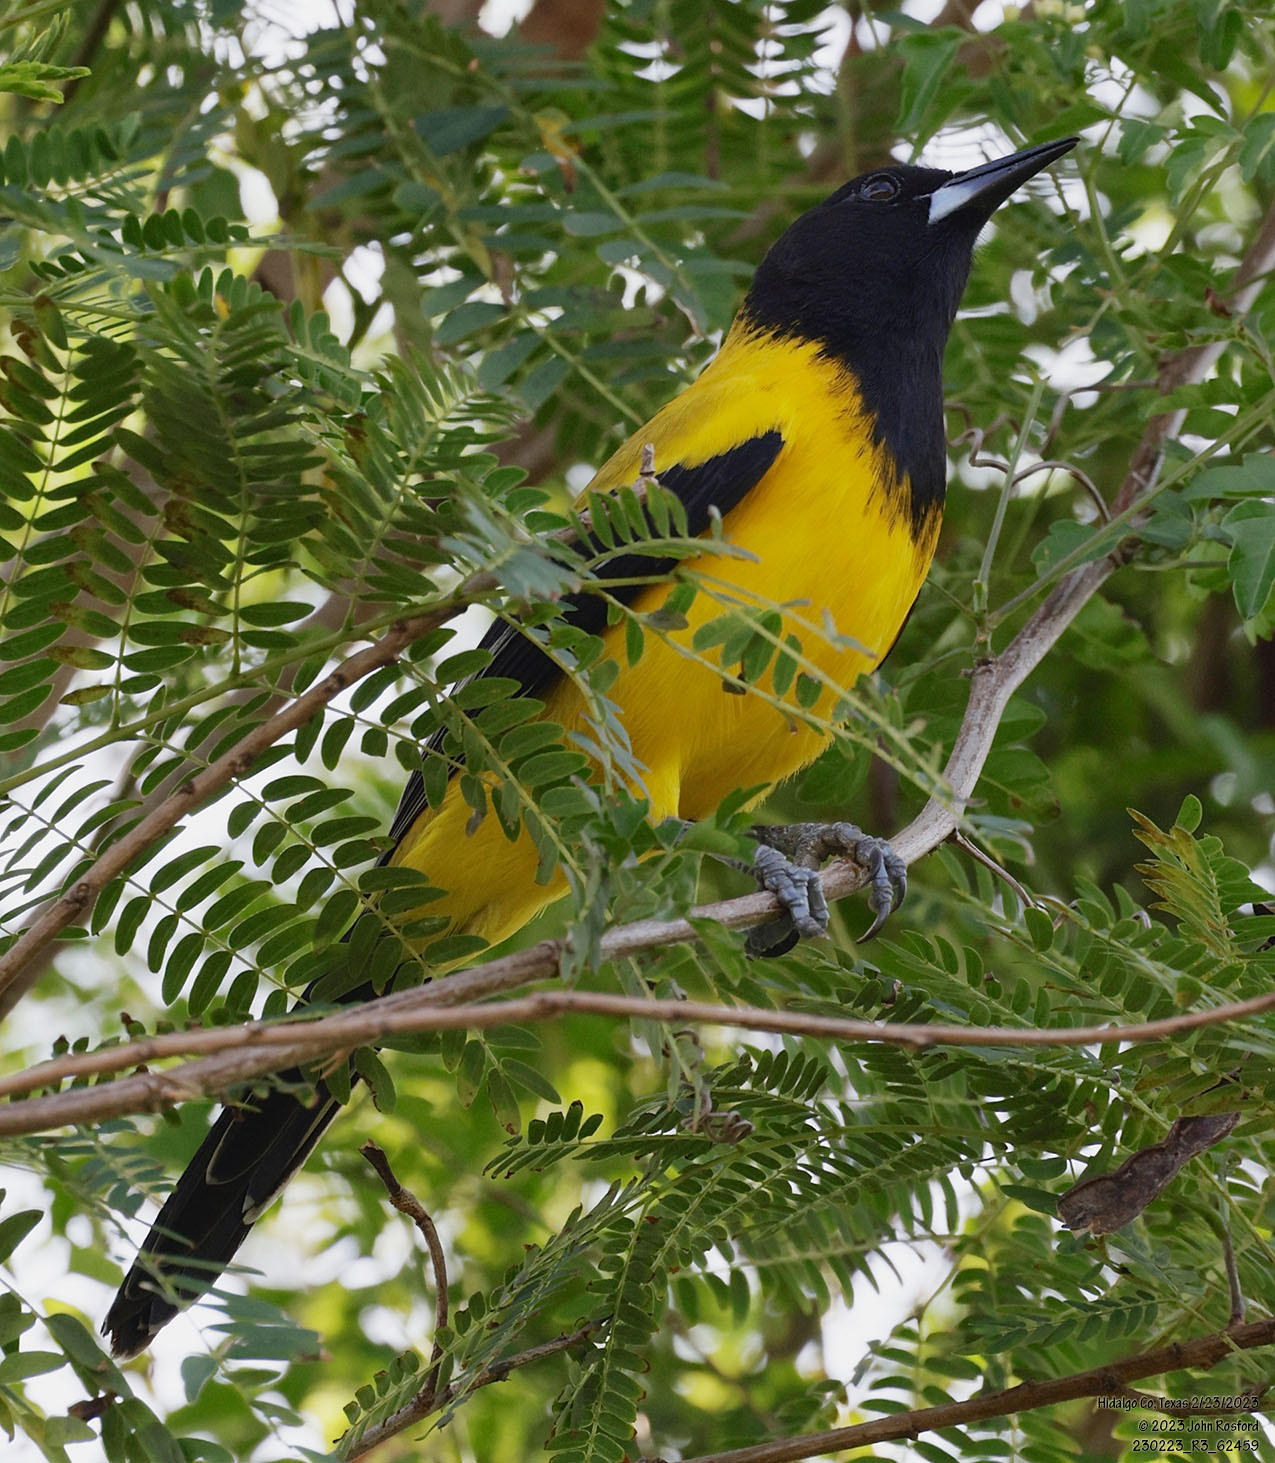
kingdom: Animalia
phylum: Chordata
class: Aves
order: Passeriformes
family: Icteridae
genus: Icterus
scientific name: Icterus graduacauda
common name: Audubon's oriole
